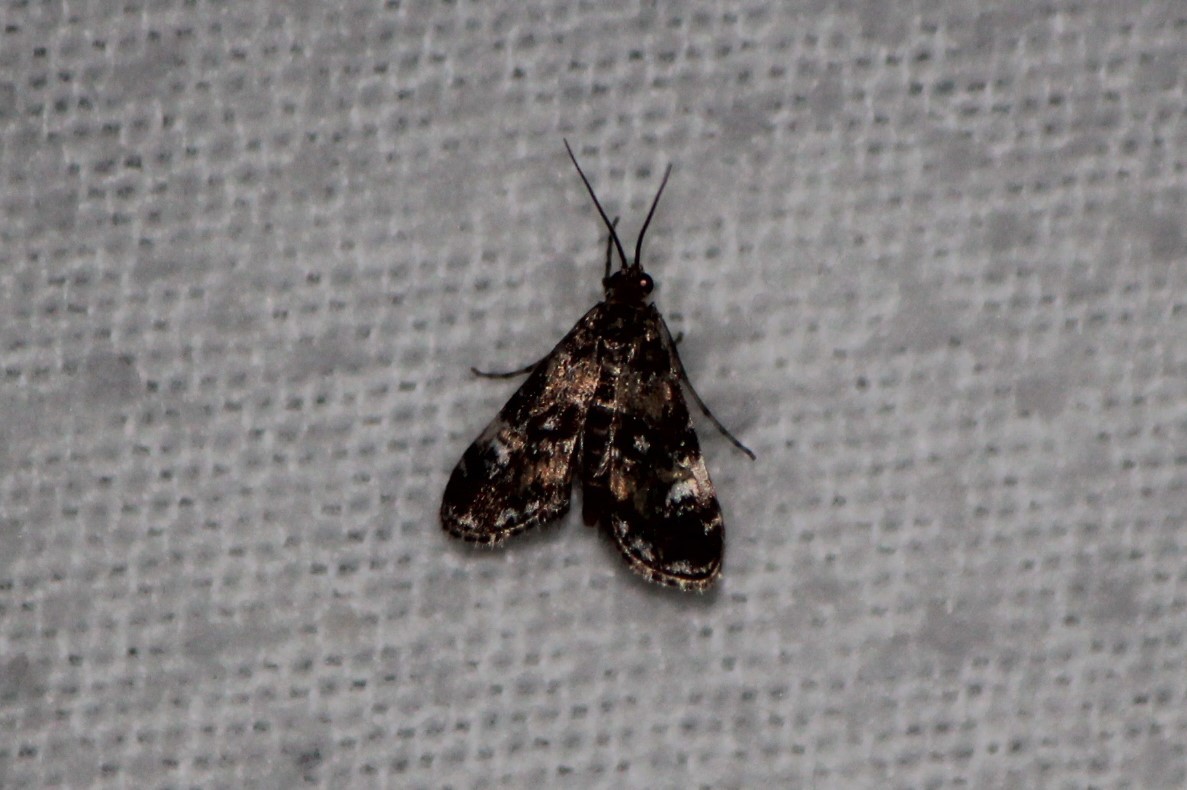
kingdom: Animalia
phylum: Arthropoda
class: Insecta
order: Lepidoptera
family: Crambidae
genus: Elophila
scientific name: Elophila obliteralis
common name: Waterlily leafcutter moth
